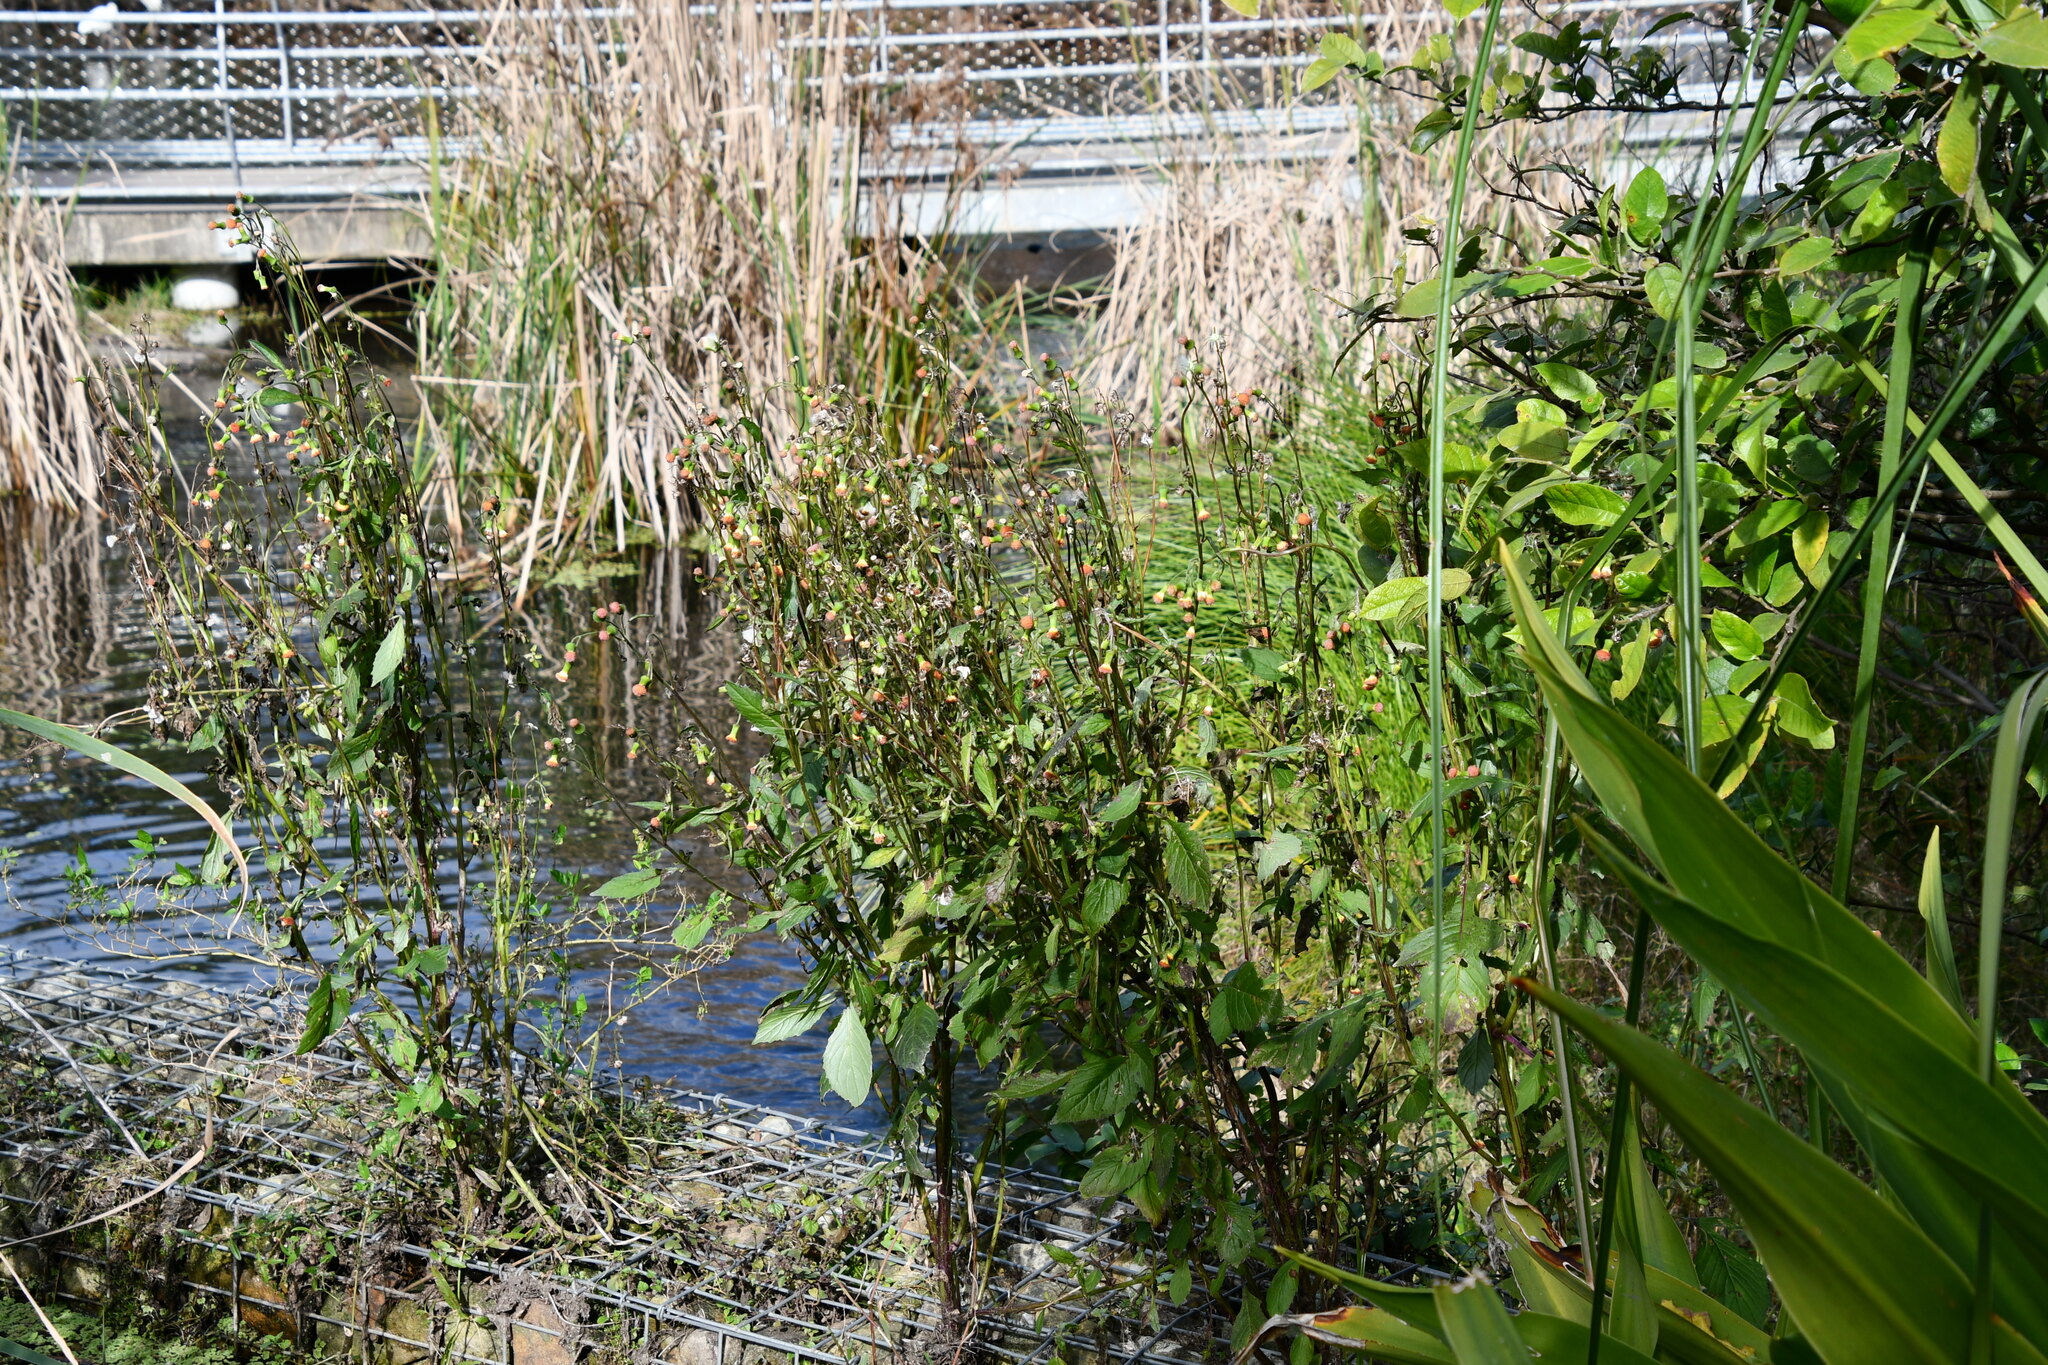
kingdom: Plantae
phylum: Tracheophyta
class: Magnoliopsida
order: Asterales
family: Asteraceae
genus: Crassocephalum
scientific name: Crassocephalum crepidioides
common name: Redflower ragleaf
